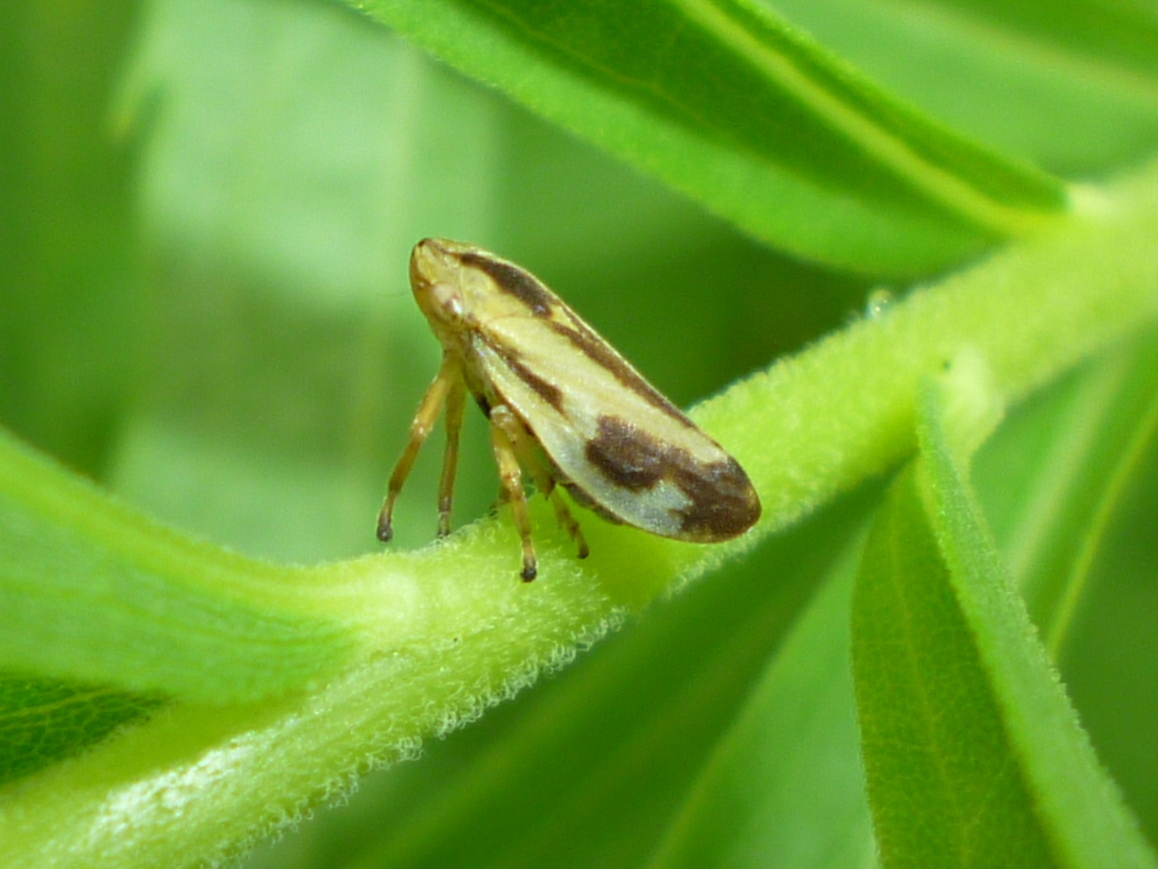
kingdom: Animalia
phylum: Arthropoda
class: Insecta
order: Hemiptera
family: Aphrophoridae
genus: Philaenus
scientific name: Philaenus spumarius
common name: Meadow spittlebug
